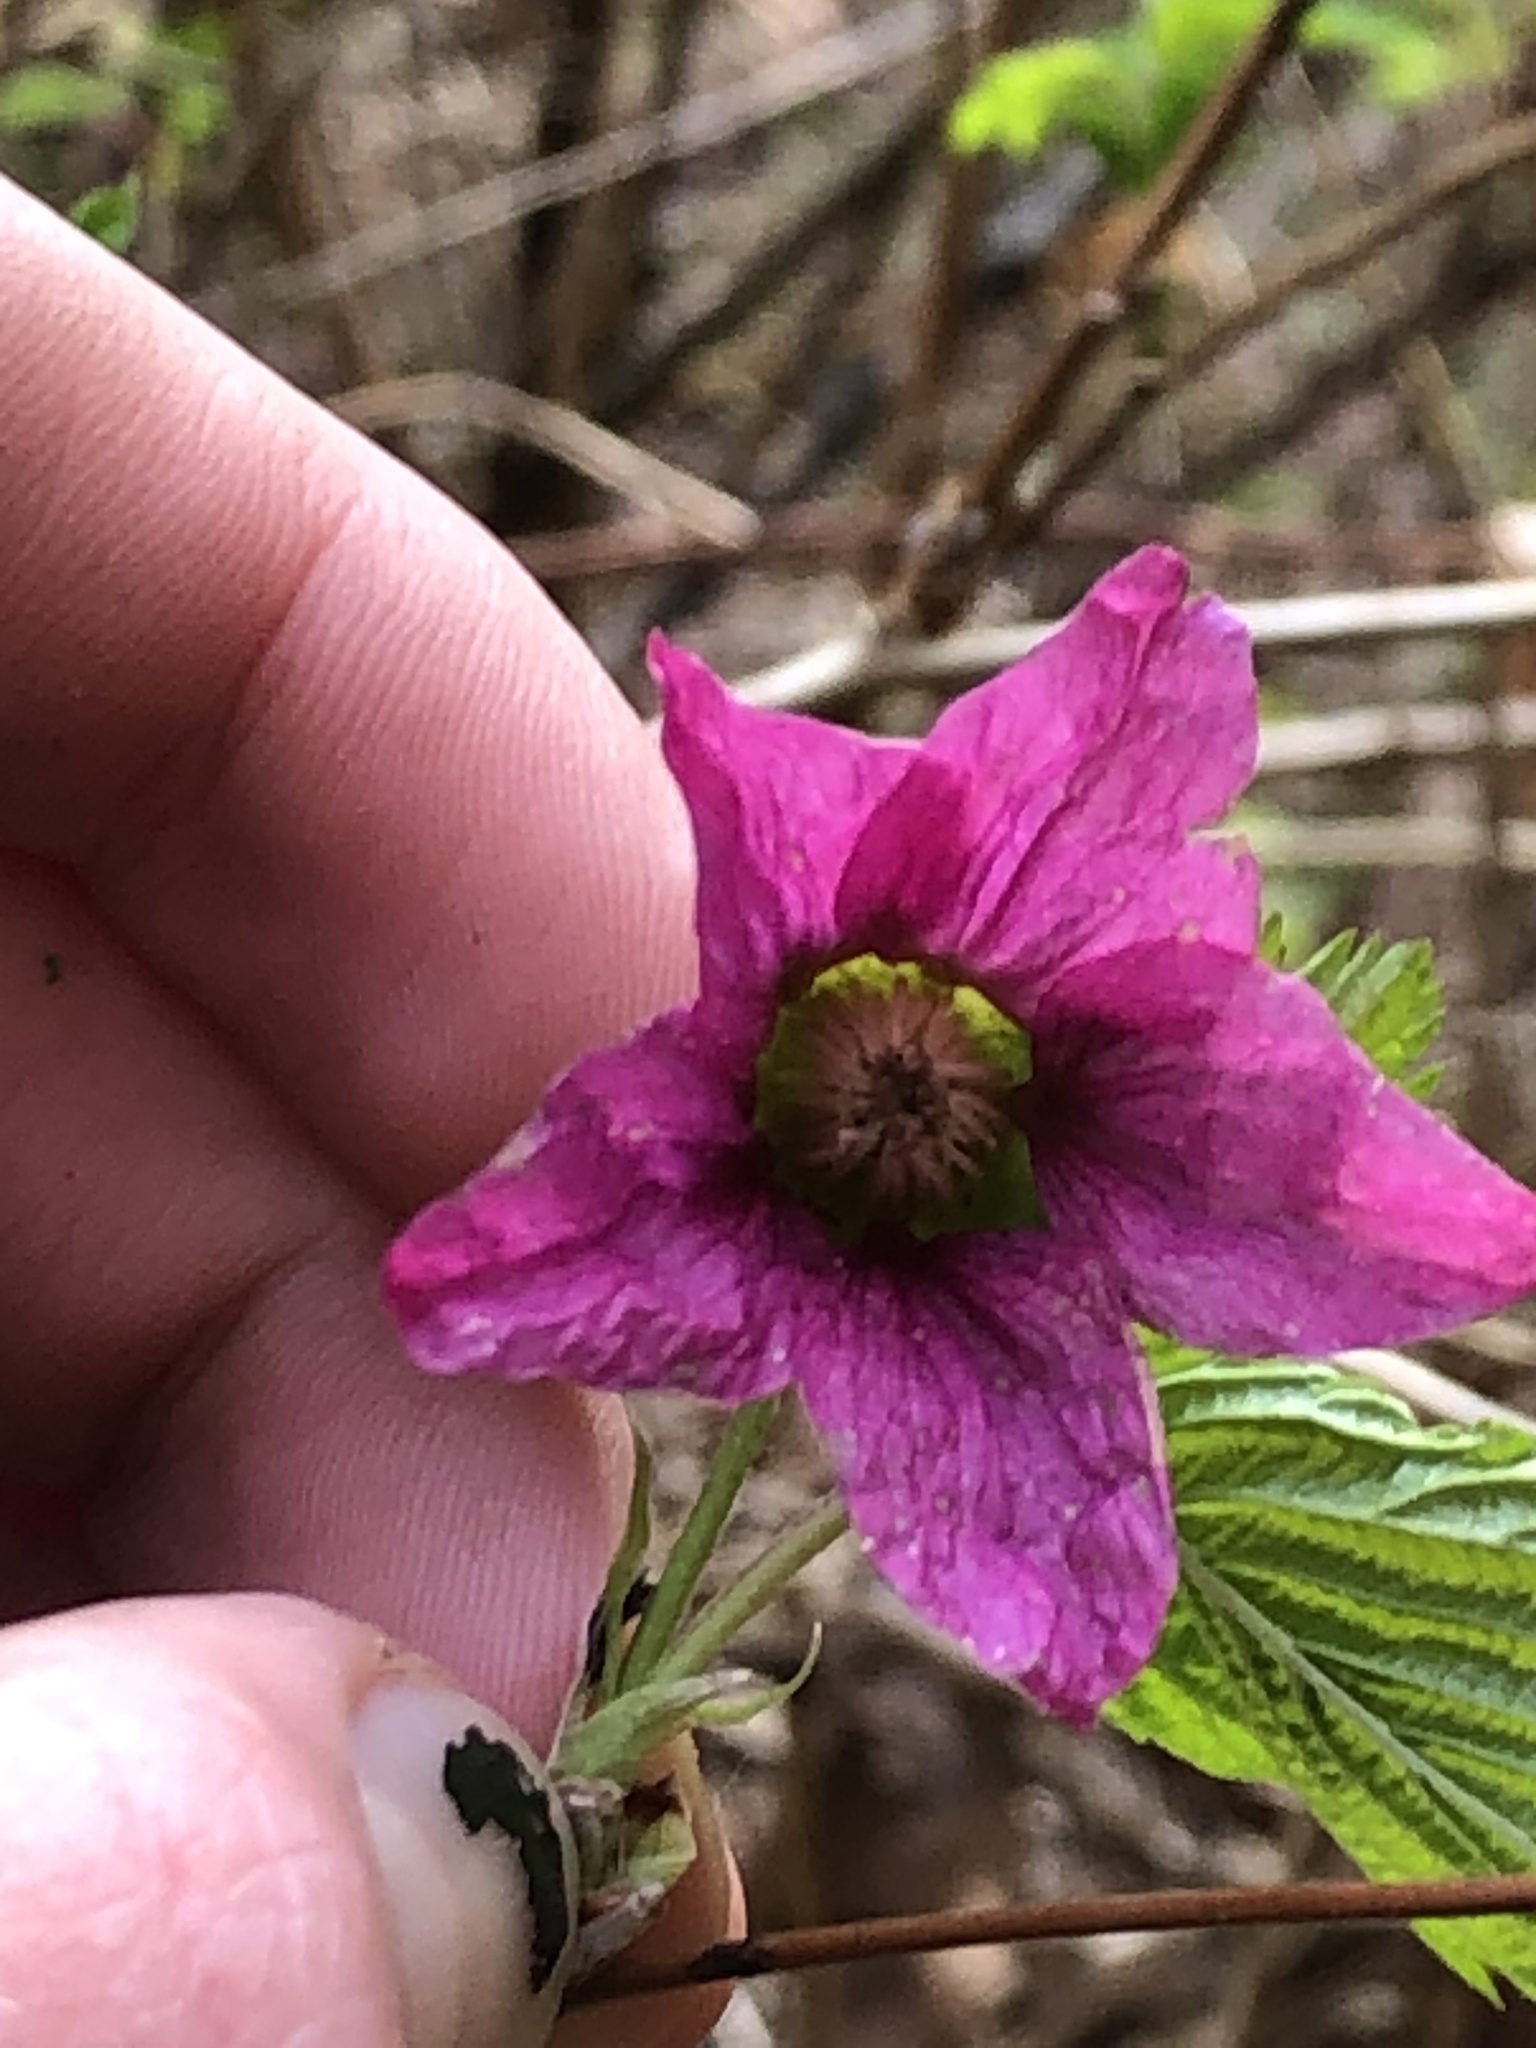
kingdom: Plantae
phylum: Tracheophyta
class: Magnoliopsida
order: Rosales
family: Rosaceae
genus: Rubus
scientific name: Rubus spectabilis
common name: Salmonberry
